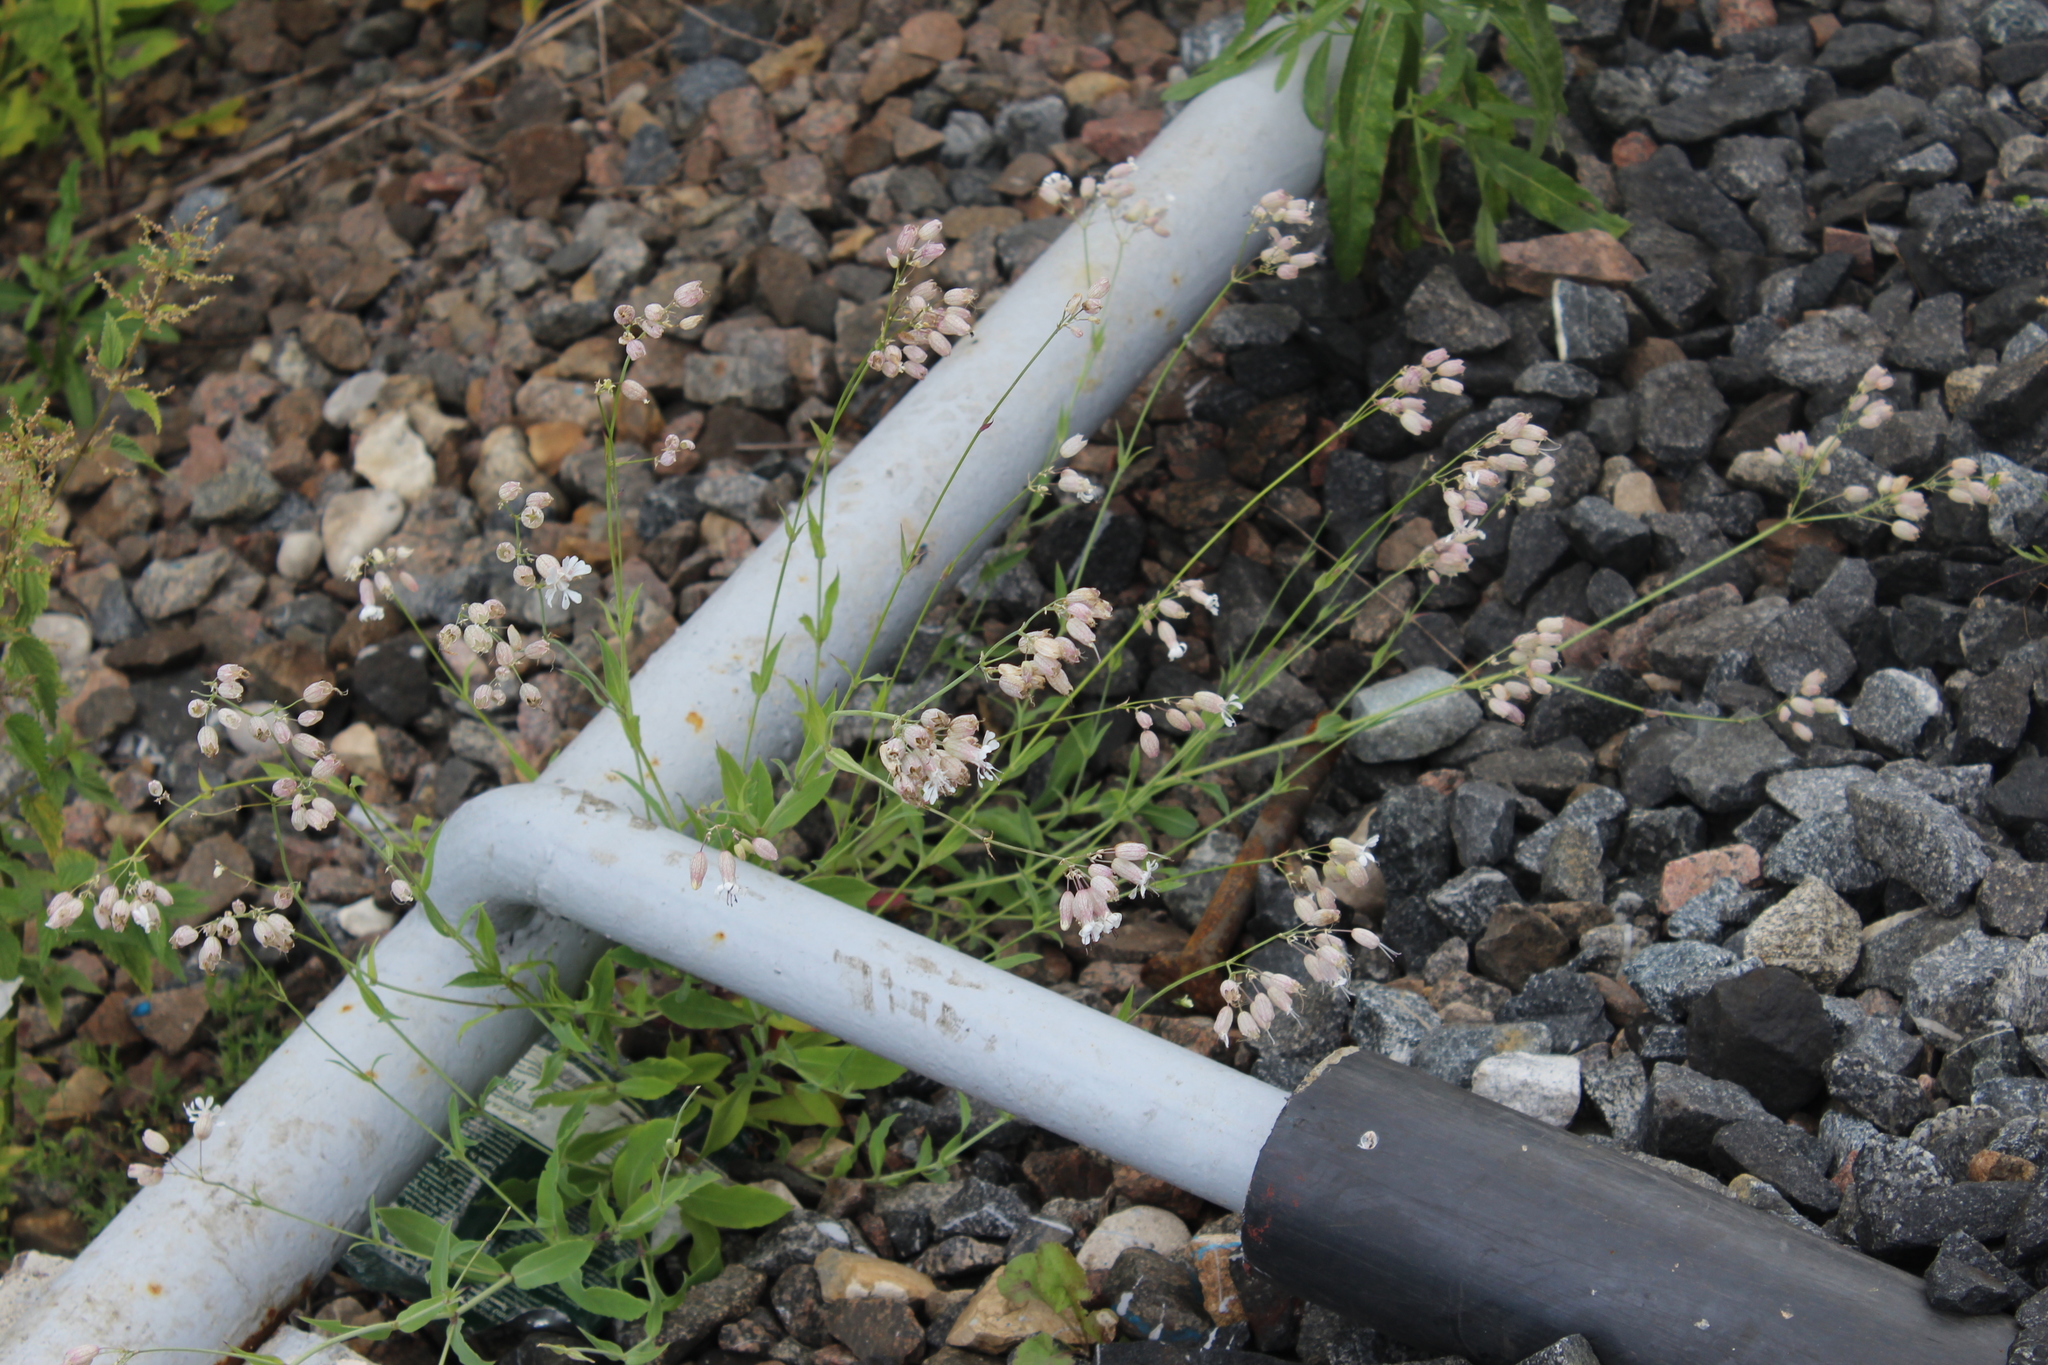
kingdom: Plantae
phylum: Tracheophyta
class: Magnoliopsida
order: Caryophyllales
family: Caryophyllaceae
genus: Silene
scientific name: Silene vulgaris
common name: Bladder campion
